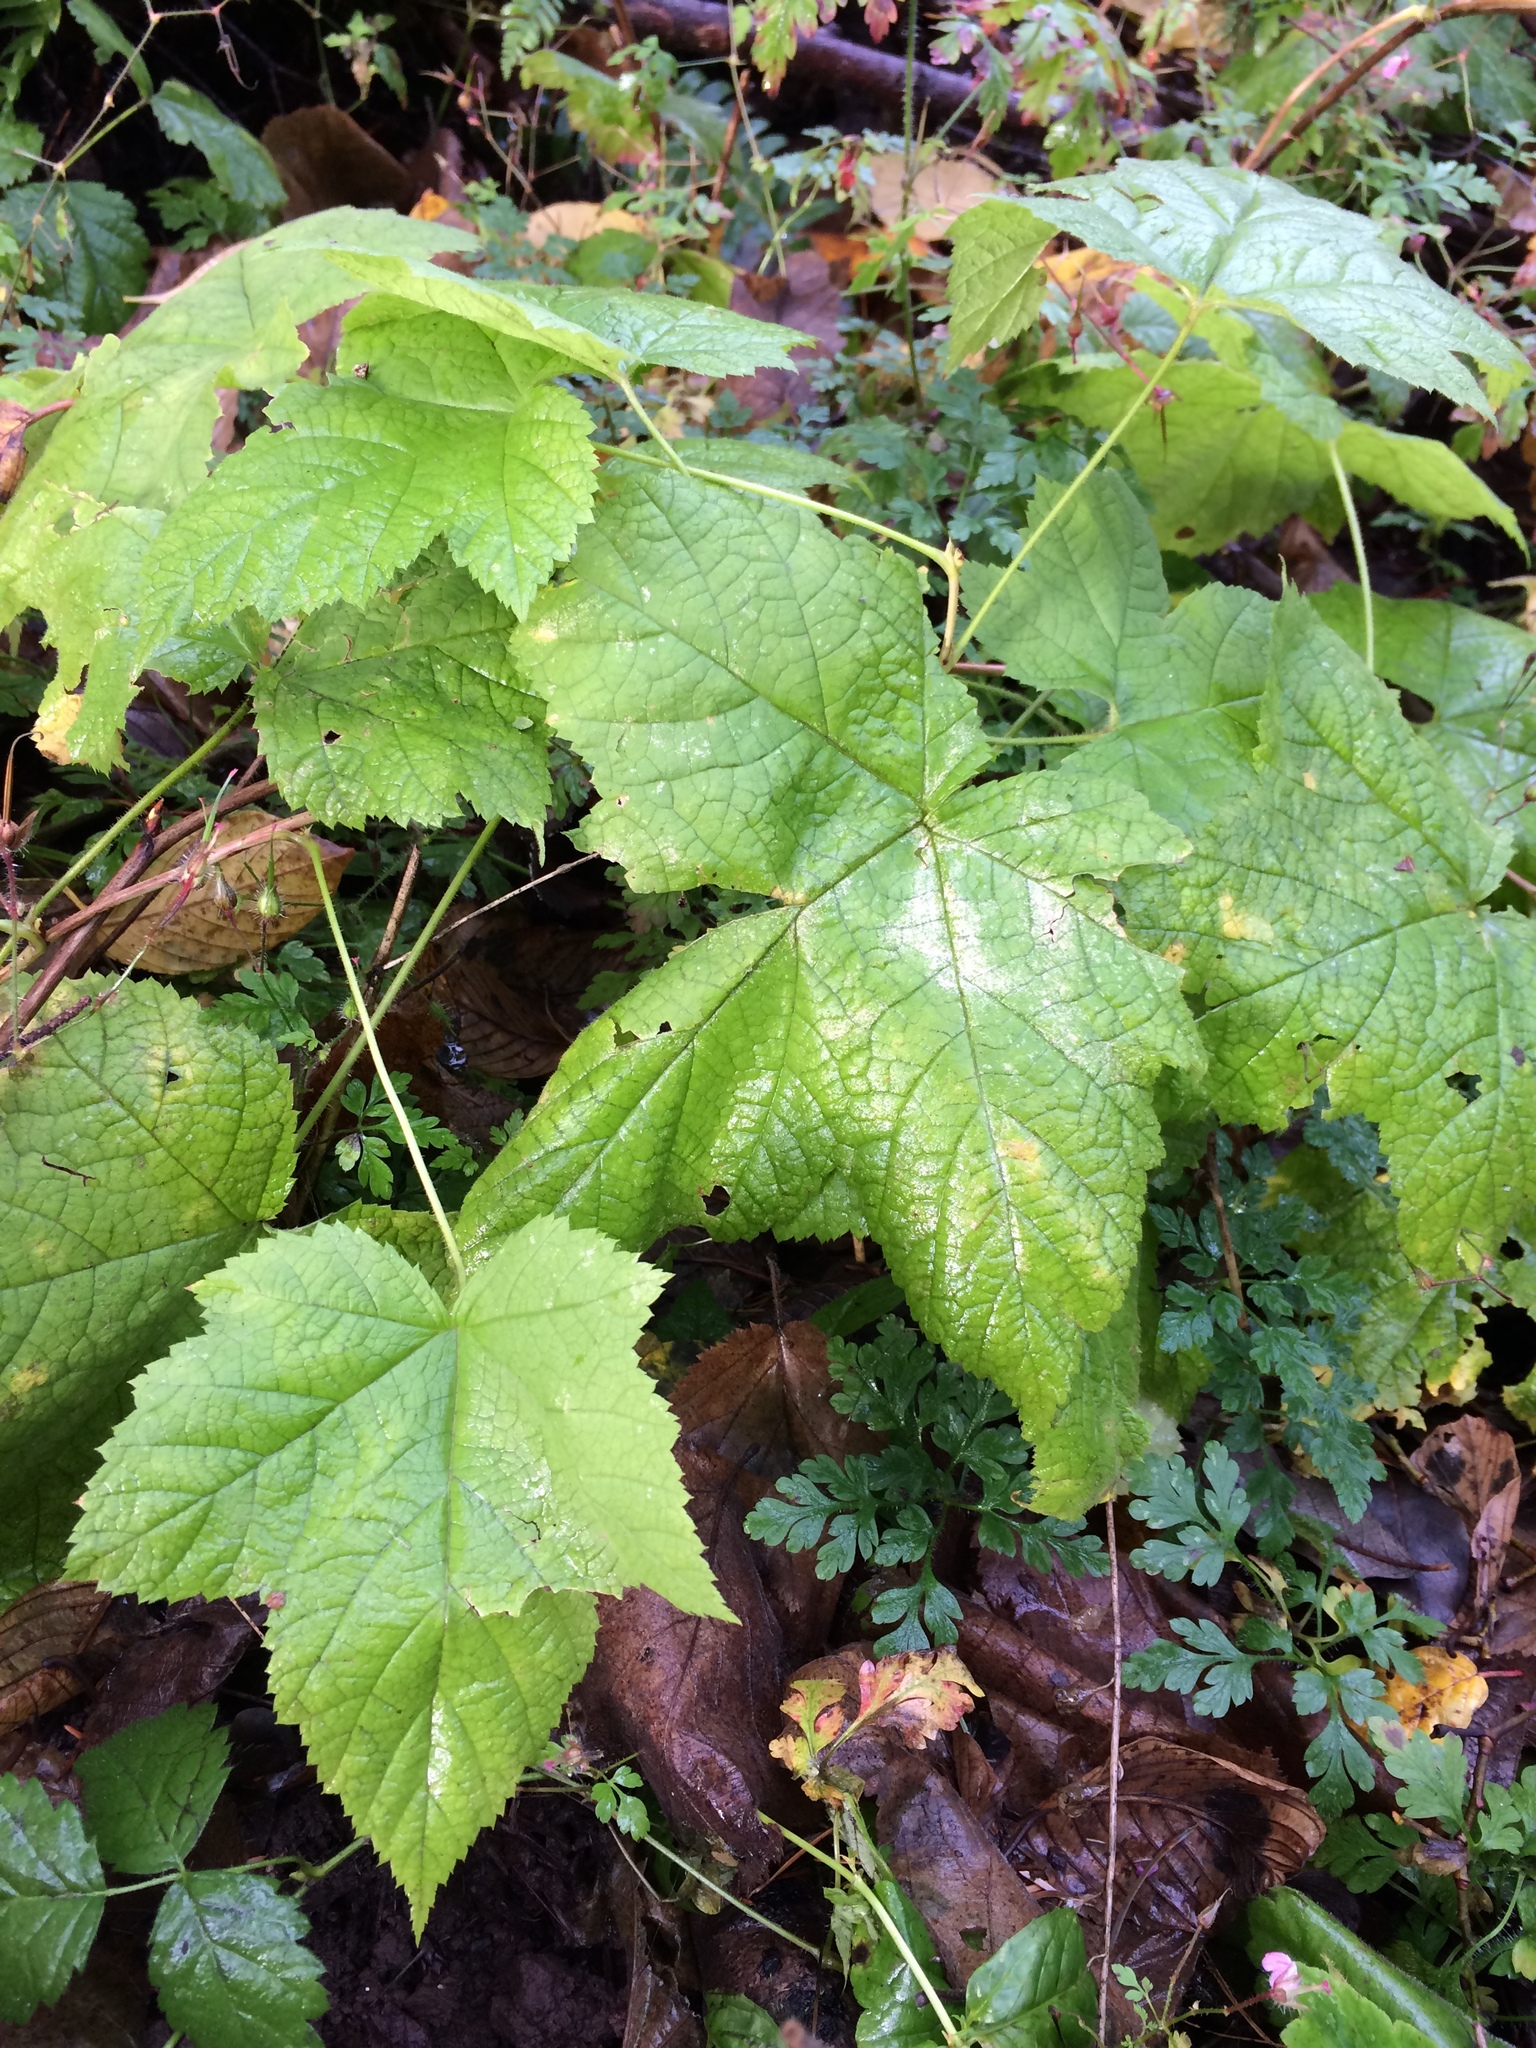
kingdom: Plantae
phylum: Tracheophyta
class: Magnoliopsida
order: Rosales
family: Rosaceae
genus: Rubus
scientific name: Rubus parviflorus
